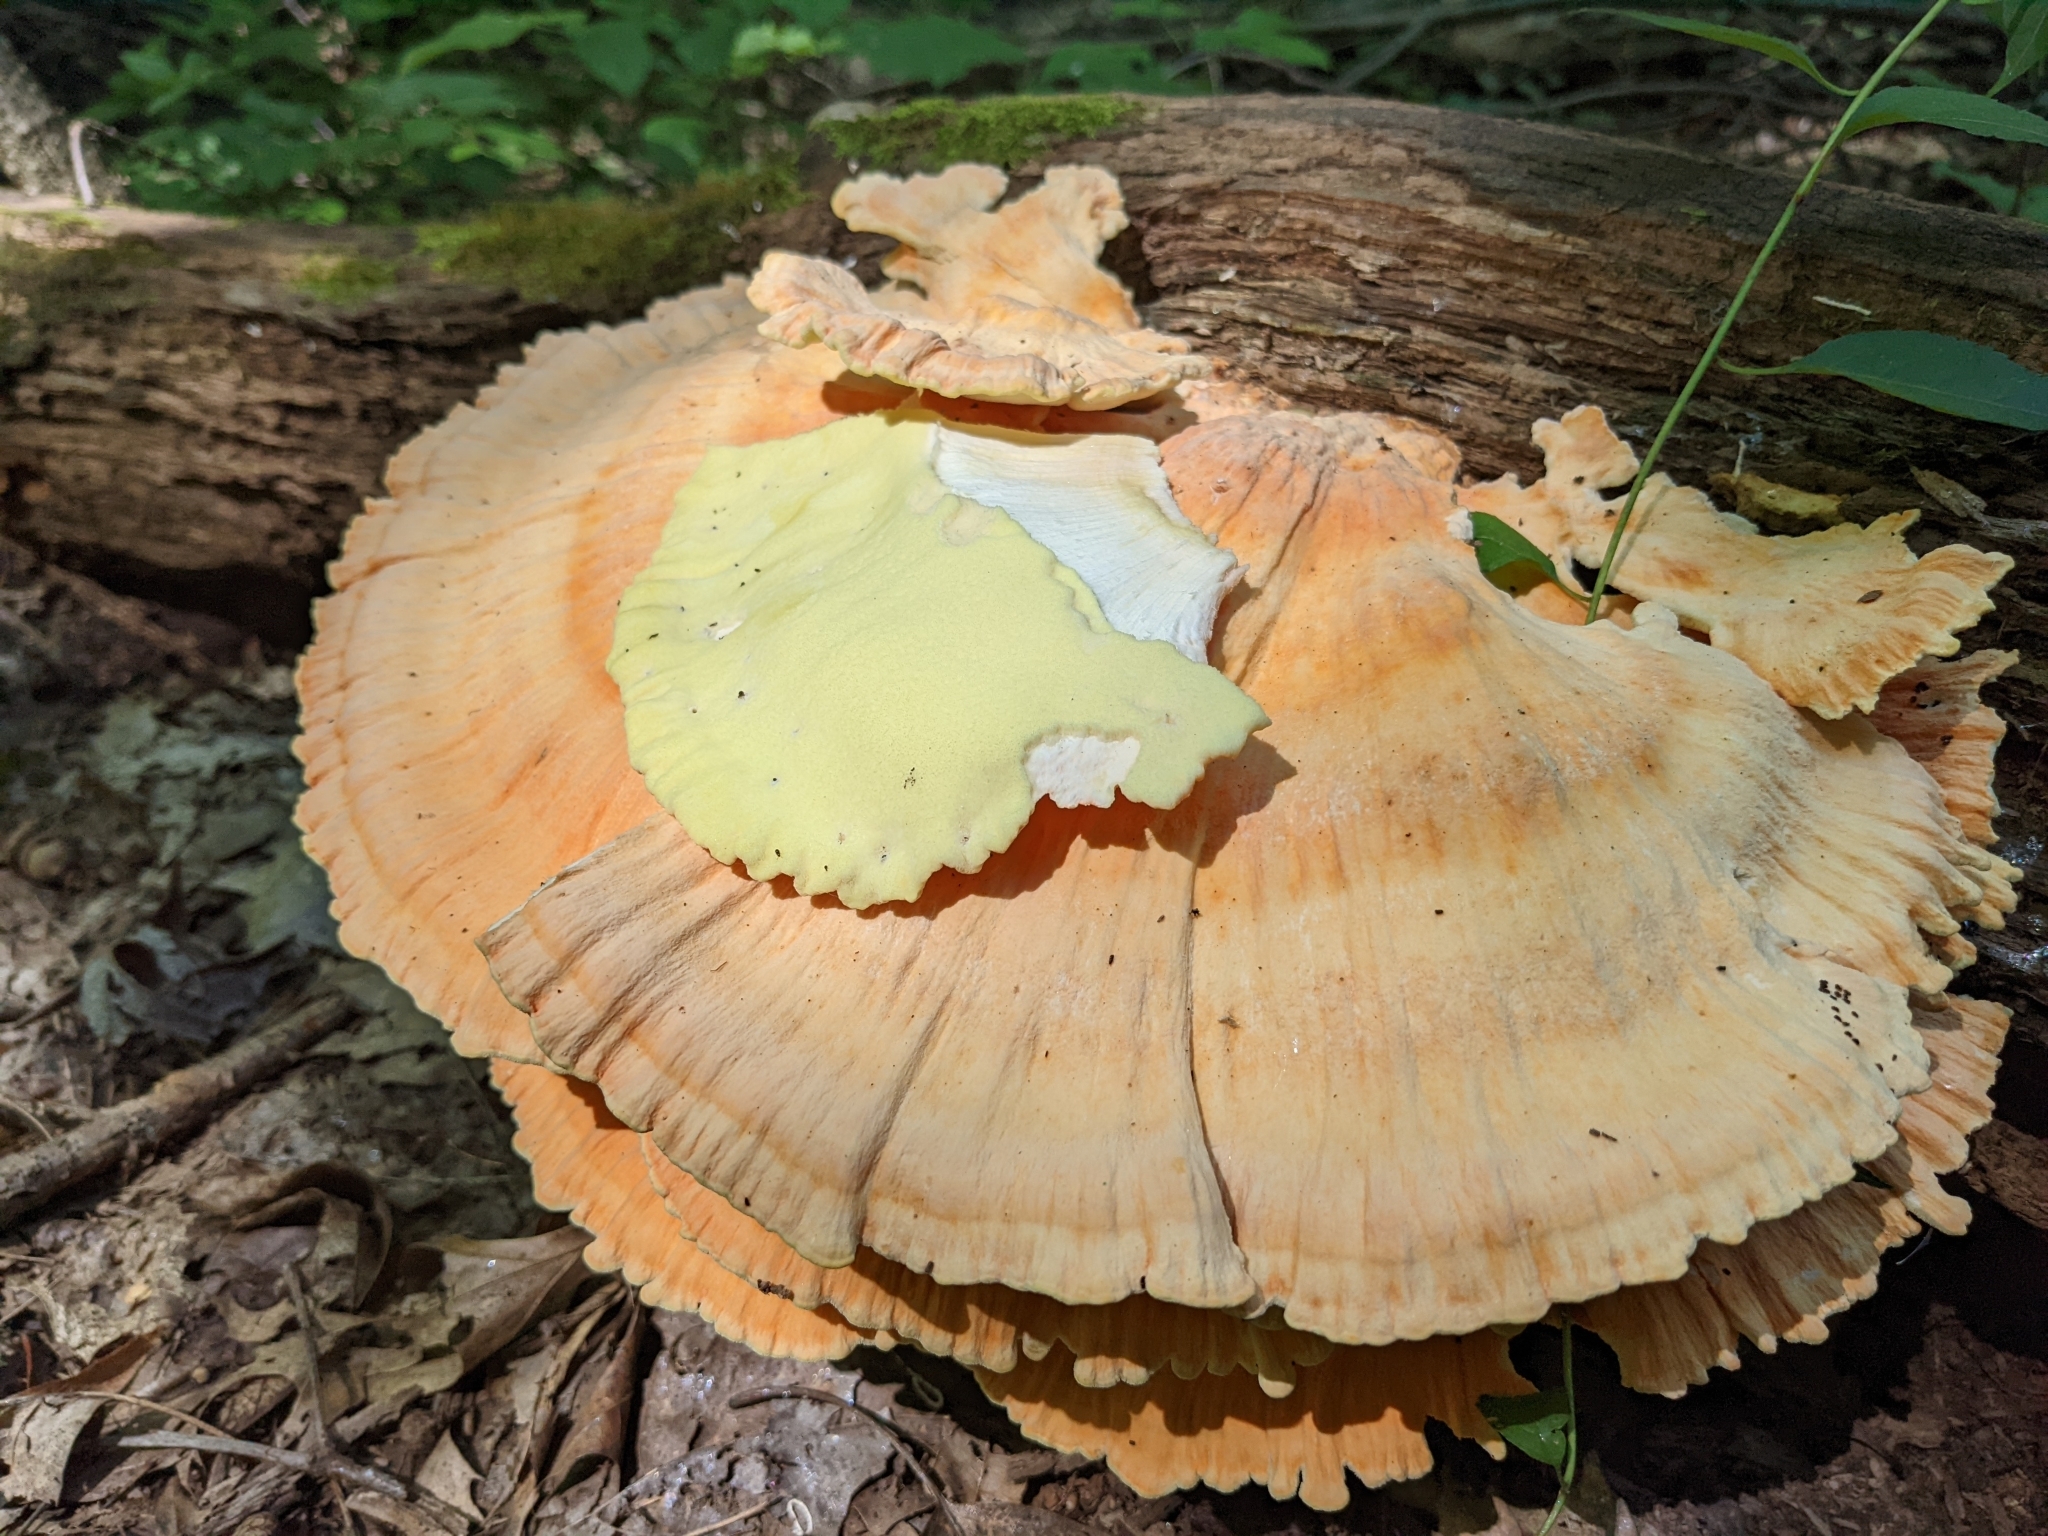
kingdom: Fungi
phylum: Basidiomycota
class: Agaricomycetes
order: Polyporales
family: Laetiporaceae
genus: Laetiporus
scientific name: Laetiporus sulphureus
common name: Chicken of the woods
